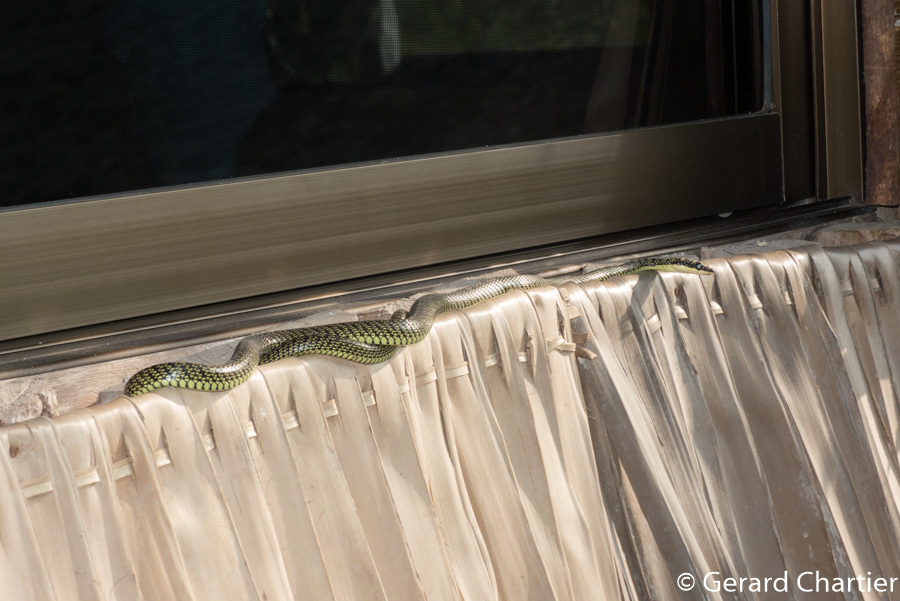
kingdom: Animalia
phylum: Chordata
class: Squamata
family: Colubridae
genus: Chrysopelea
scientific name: Chrysopelea ornata
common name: Golden flying snake
